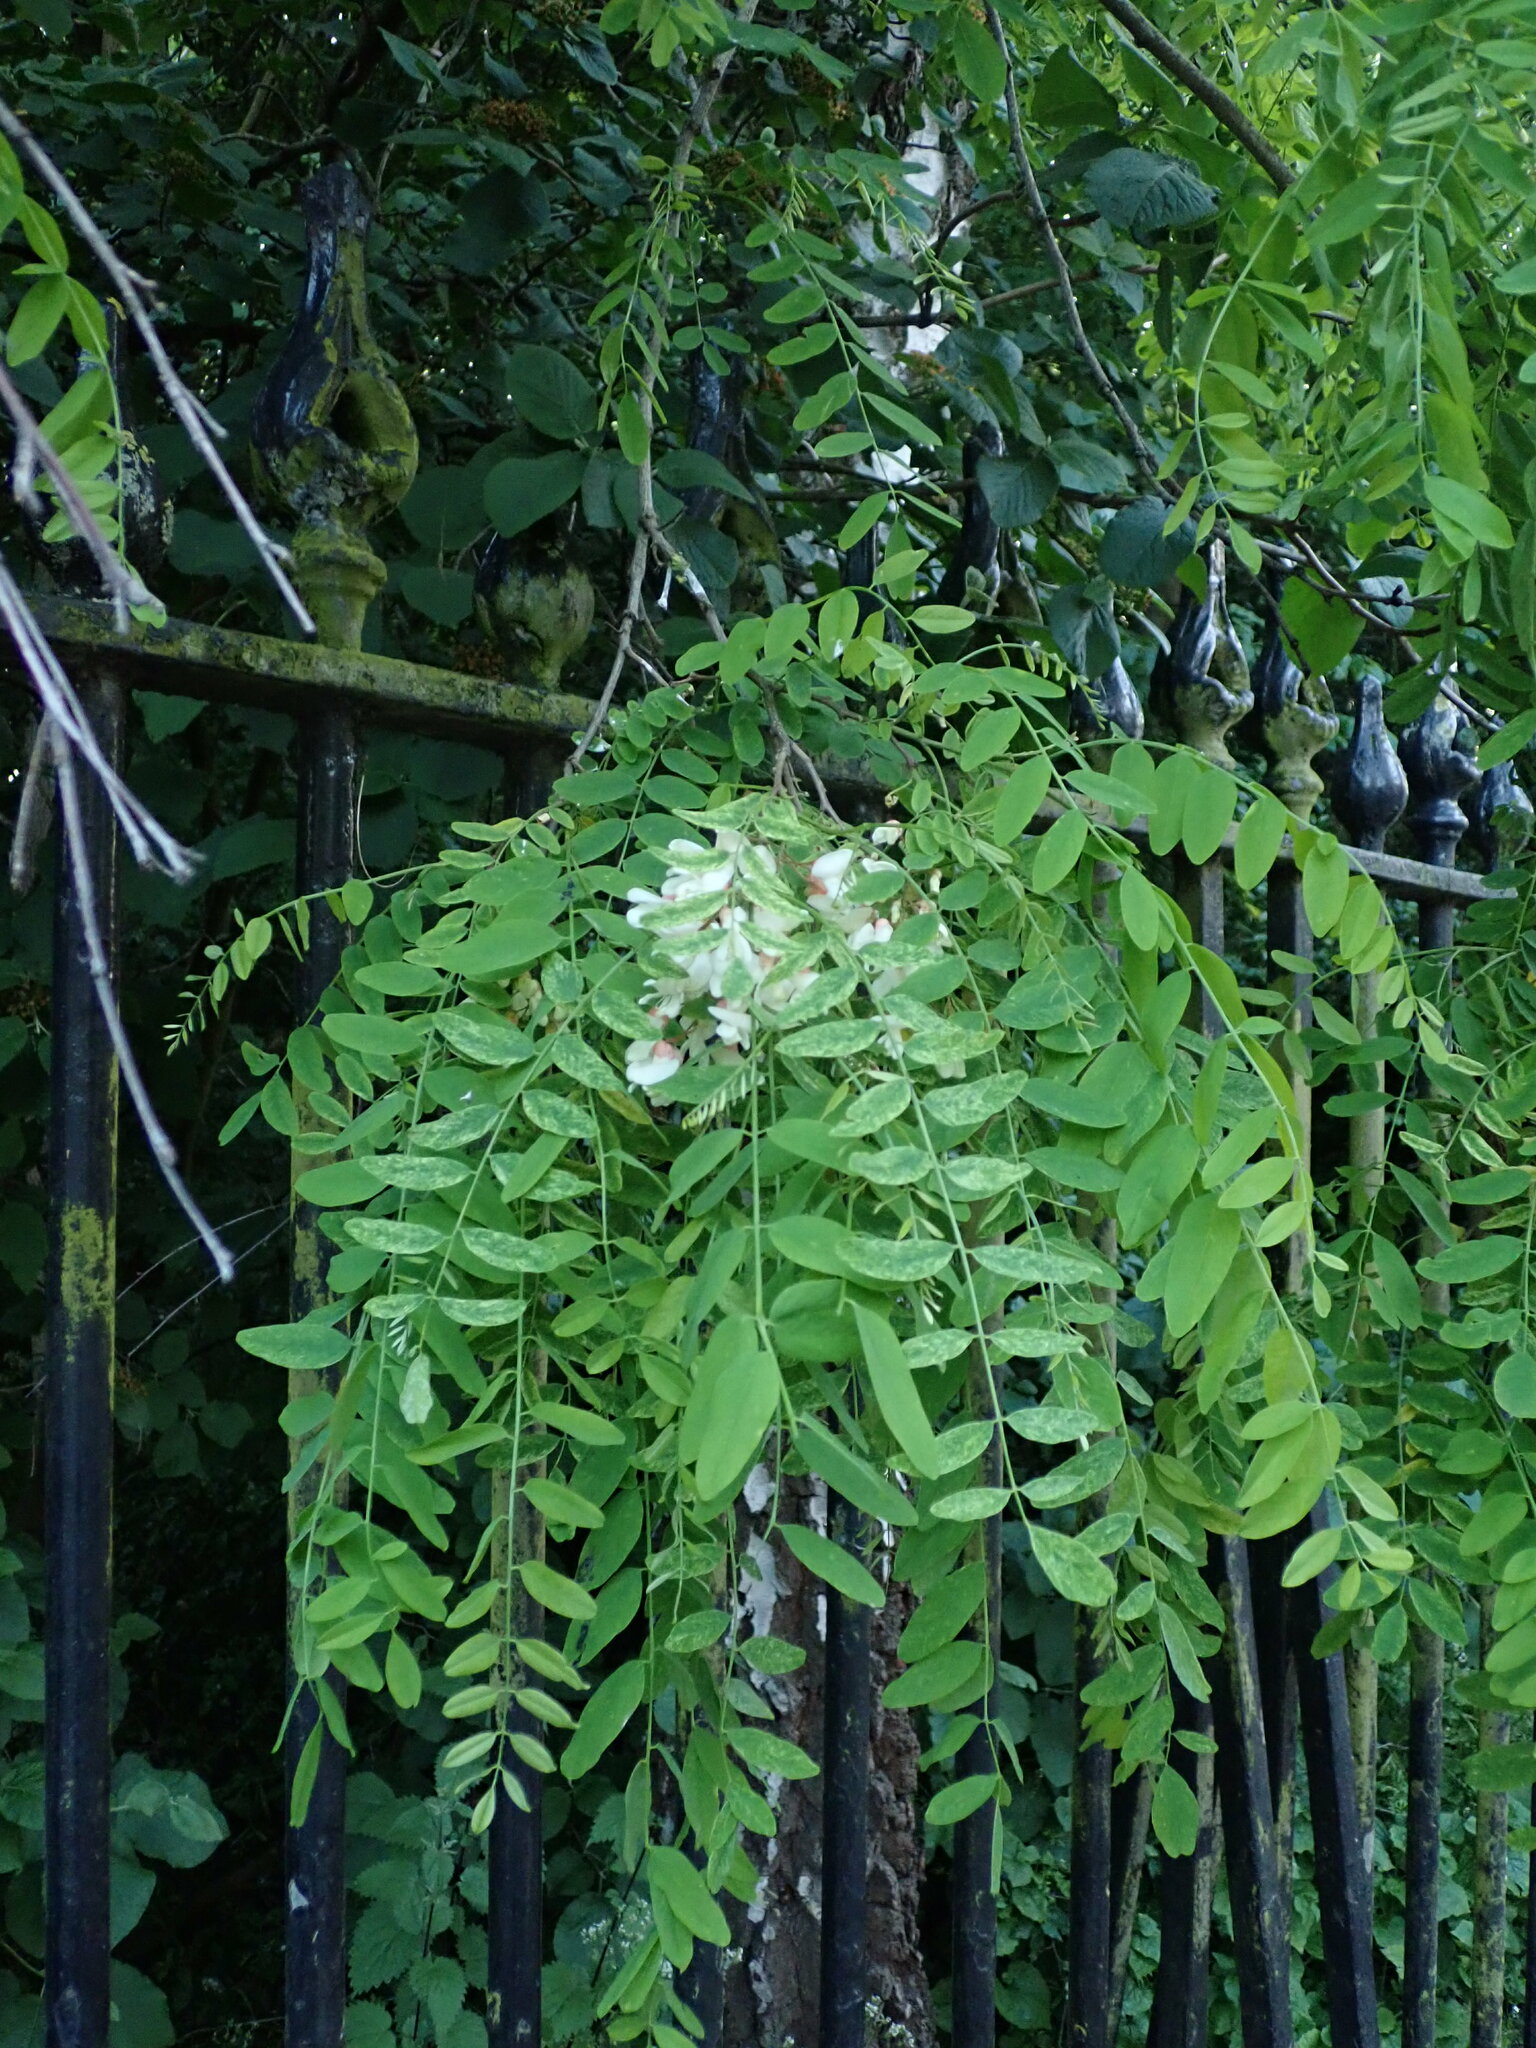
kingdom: Plantae
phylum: Tracheophyta
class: Magnoliopsida
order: Fabales
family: Fabaceae
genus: Robinia
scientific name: Robinia pseudoacacia
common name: Black locust
